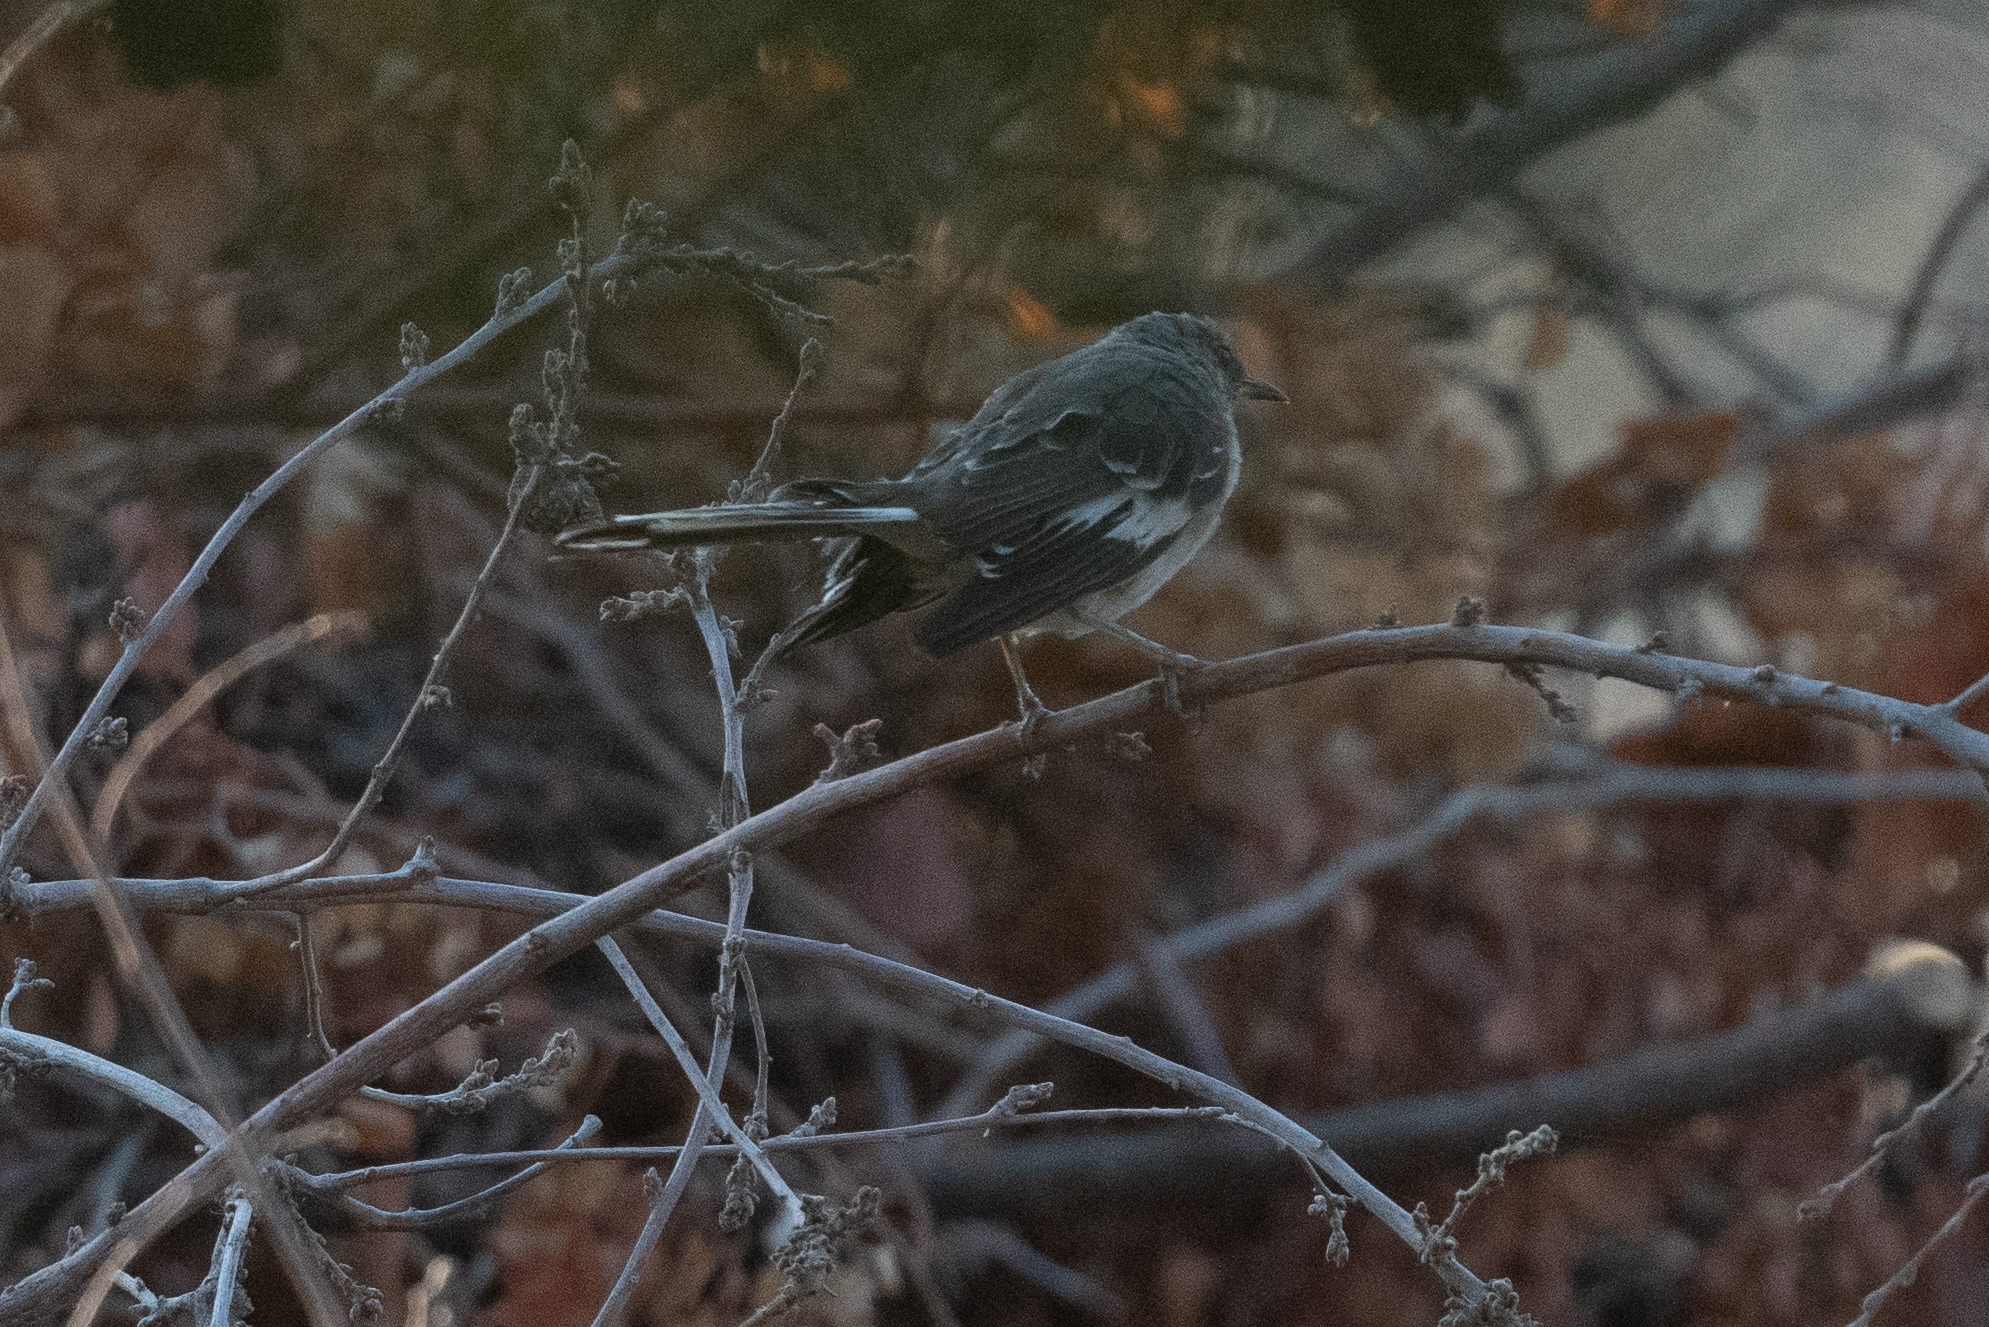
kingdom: Animalia
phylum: Chordata
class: Aves
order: Passeriformes
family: Mimidae
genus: Mimus
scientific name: Mimus polyglottos
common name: Northern mockingbird
